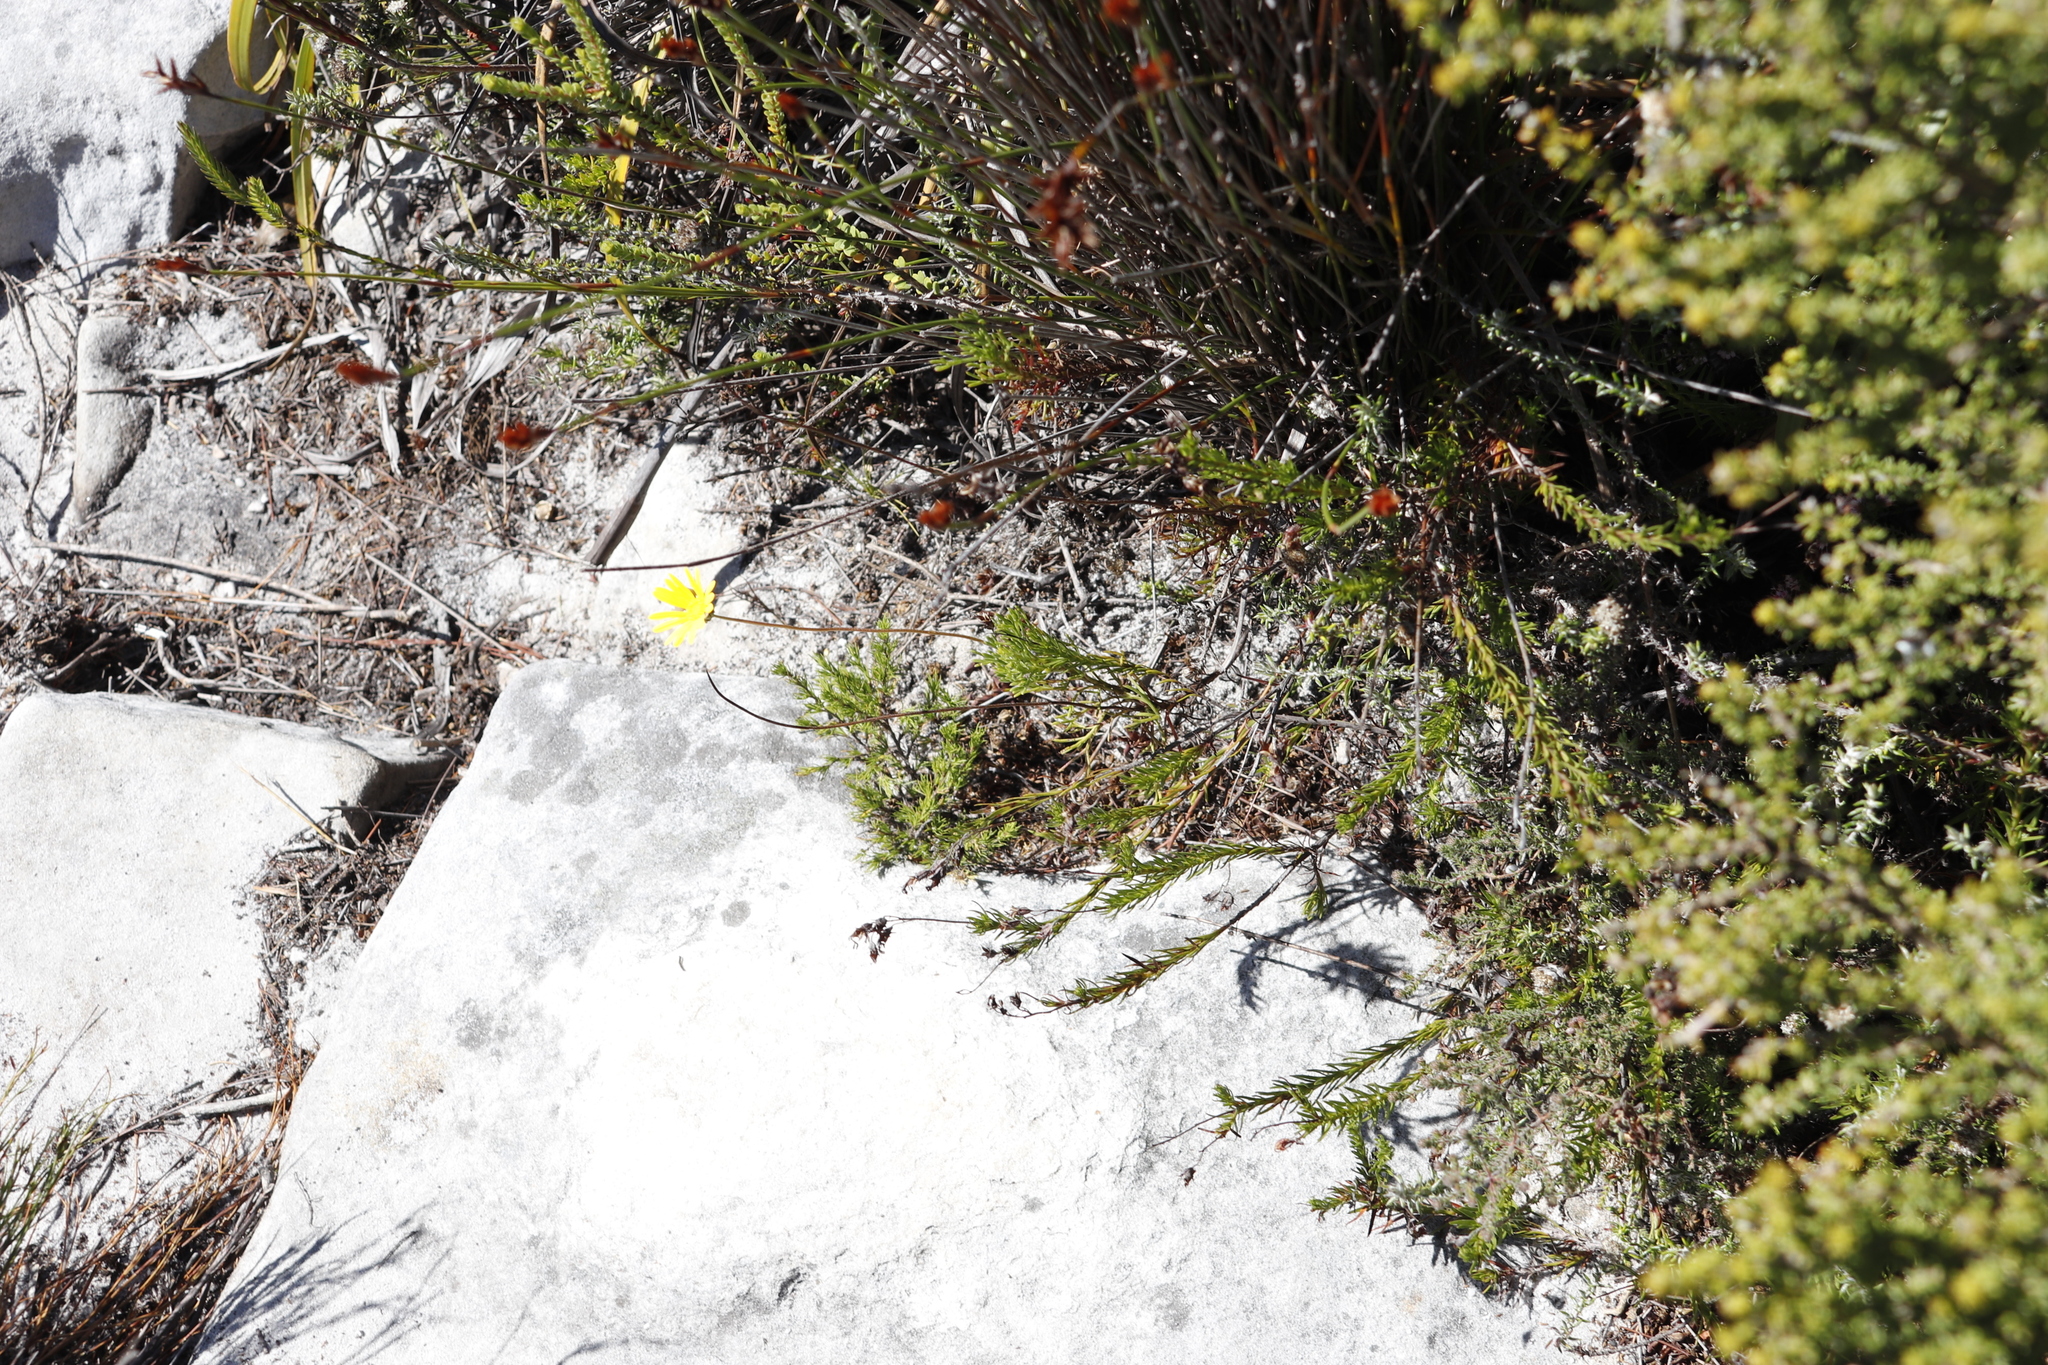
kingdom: Plantae
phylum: Tracheophyta
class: Magnoliopsida
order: Asterales
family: Asteraceae
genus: Ursinia
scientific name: Ursinia paleacea
